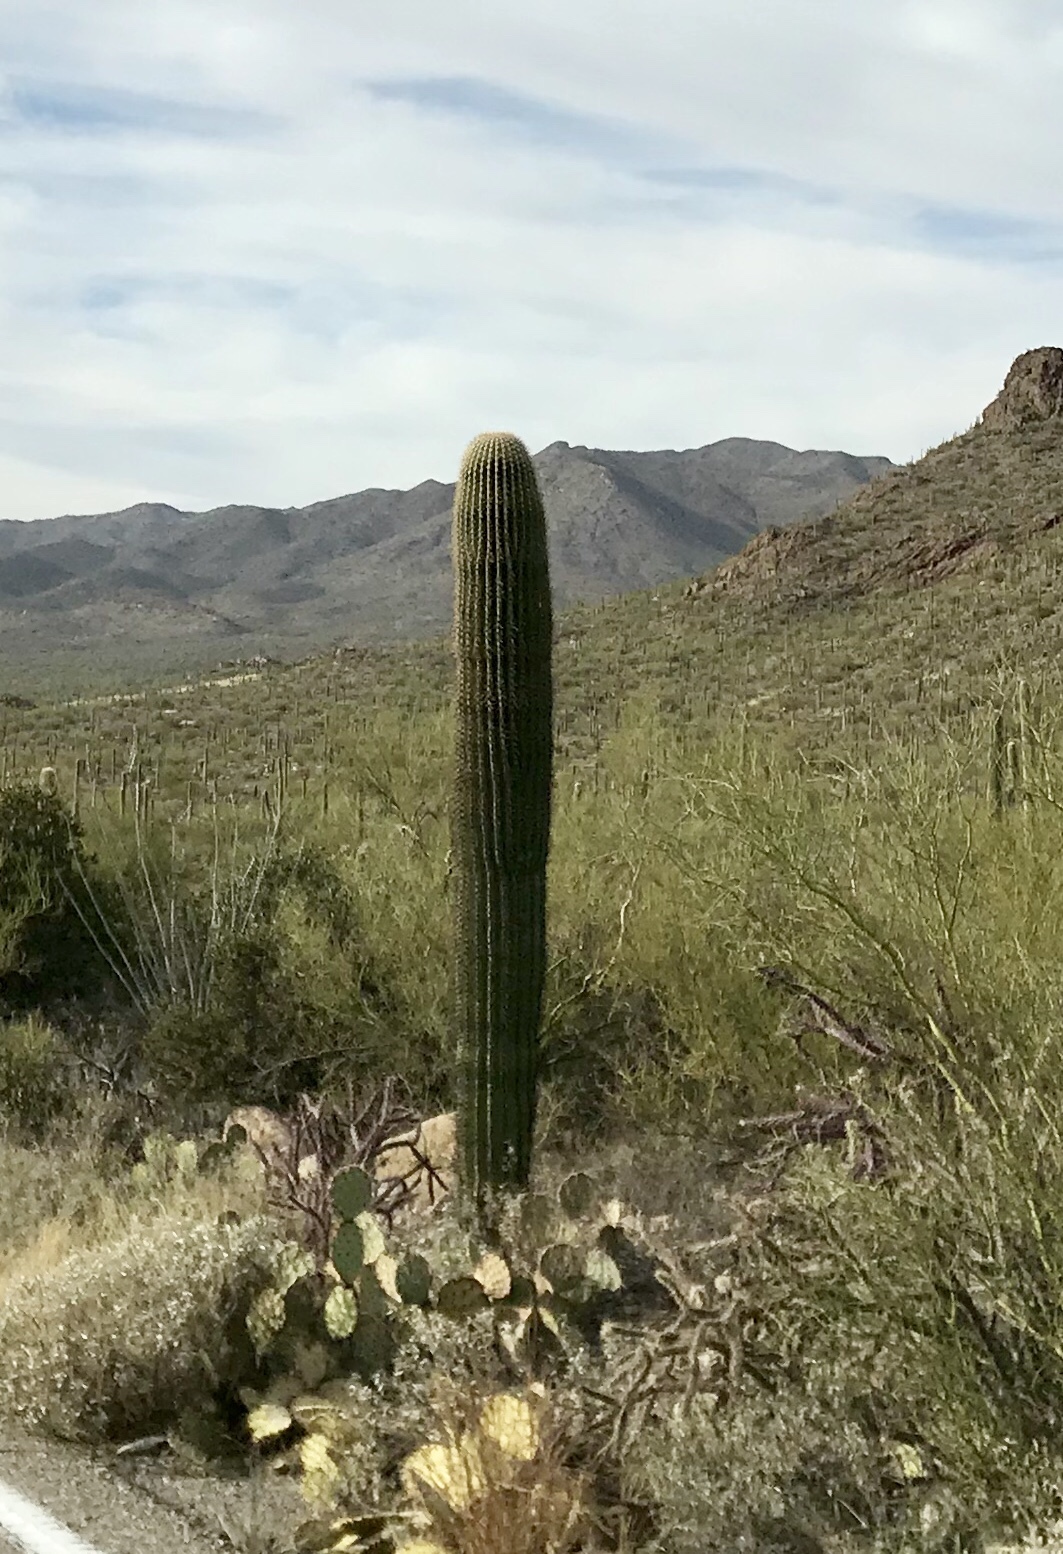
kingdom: Plantae
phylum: Tracheophyta
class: Magnoliopsida
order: Caryophyllales
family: Cactaceae
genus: Carnegiea
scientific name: Carnegiea gigantea
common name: Saguaro
